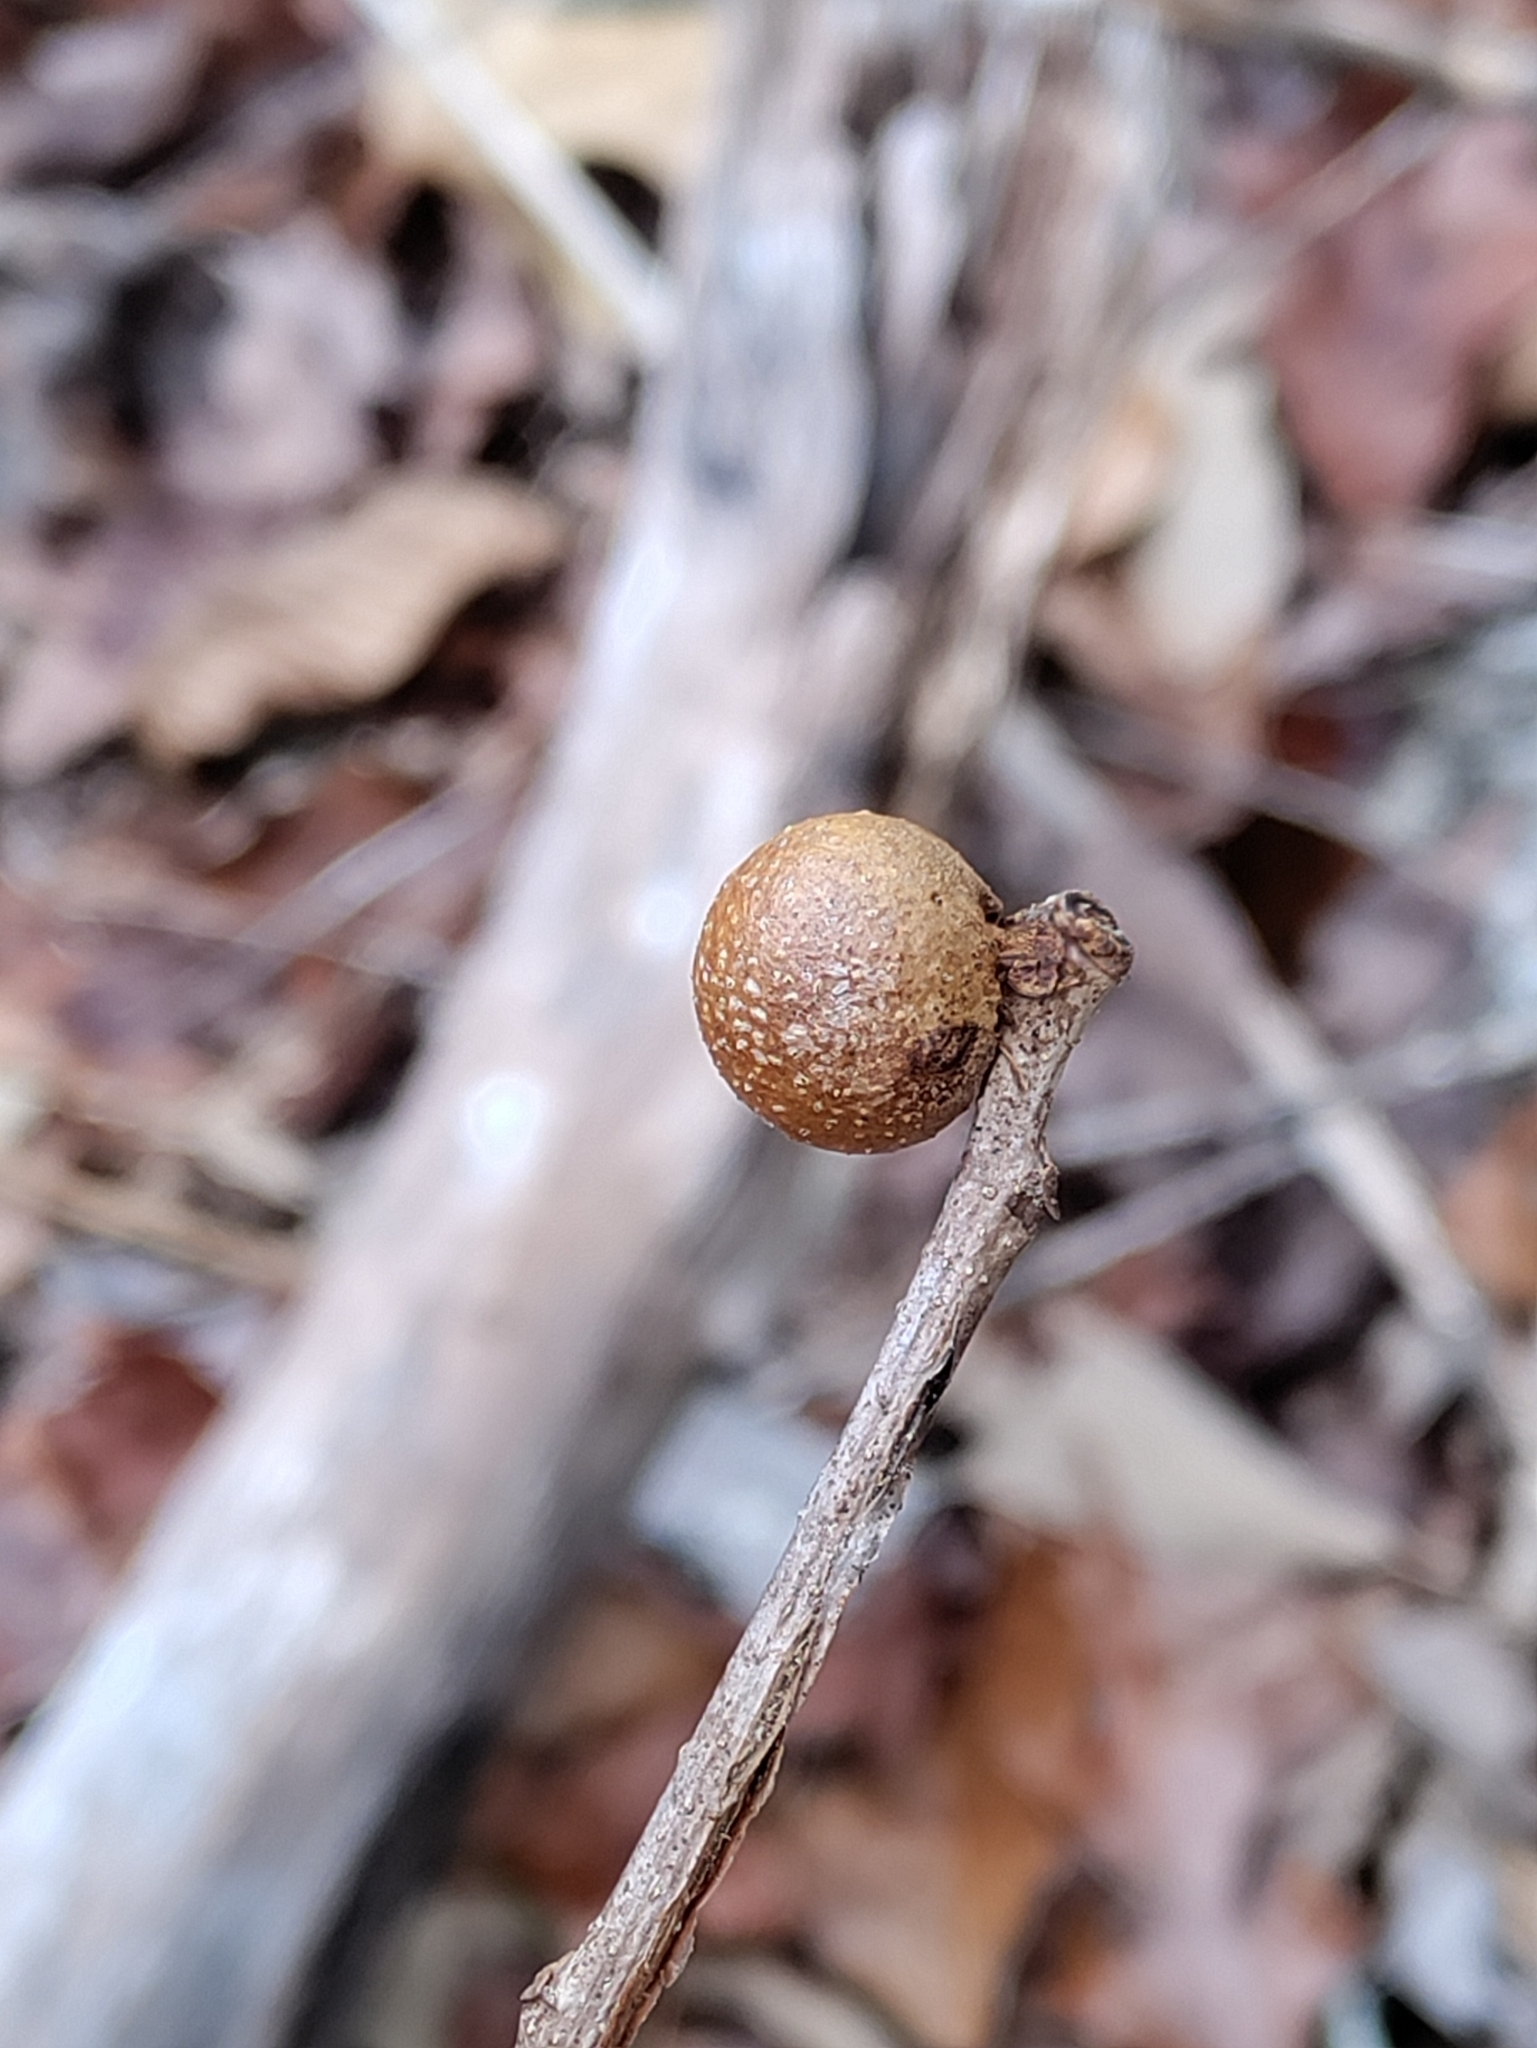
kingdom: Animalia
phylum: Arthropoda
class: Insecta
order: Hymenoptera
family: Cynipidae
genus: Disholcaspis
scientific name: Disholcaspis quercusglobulus
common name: Round bullet gall wasp
